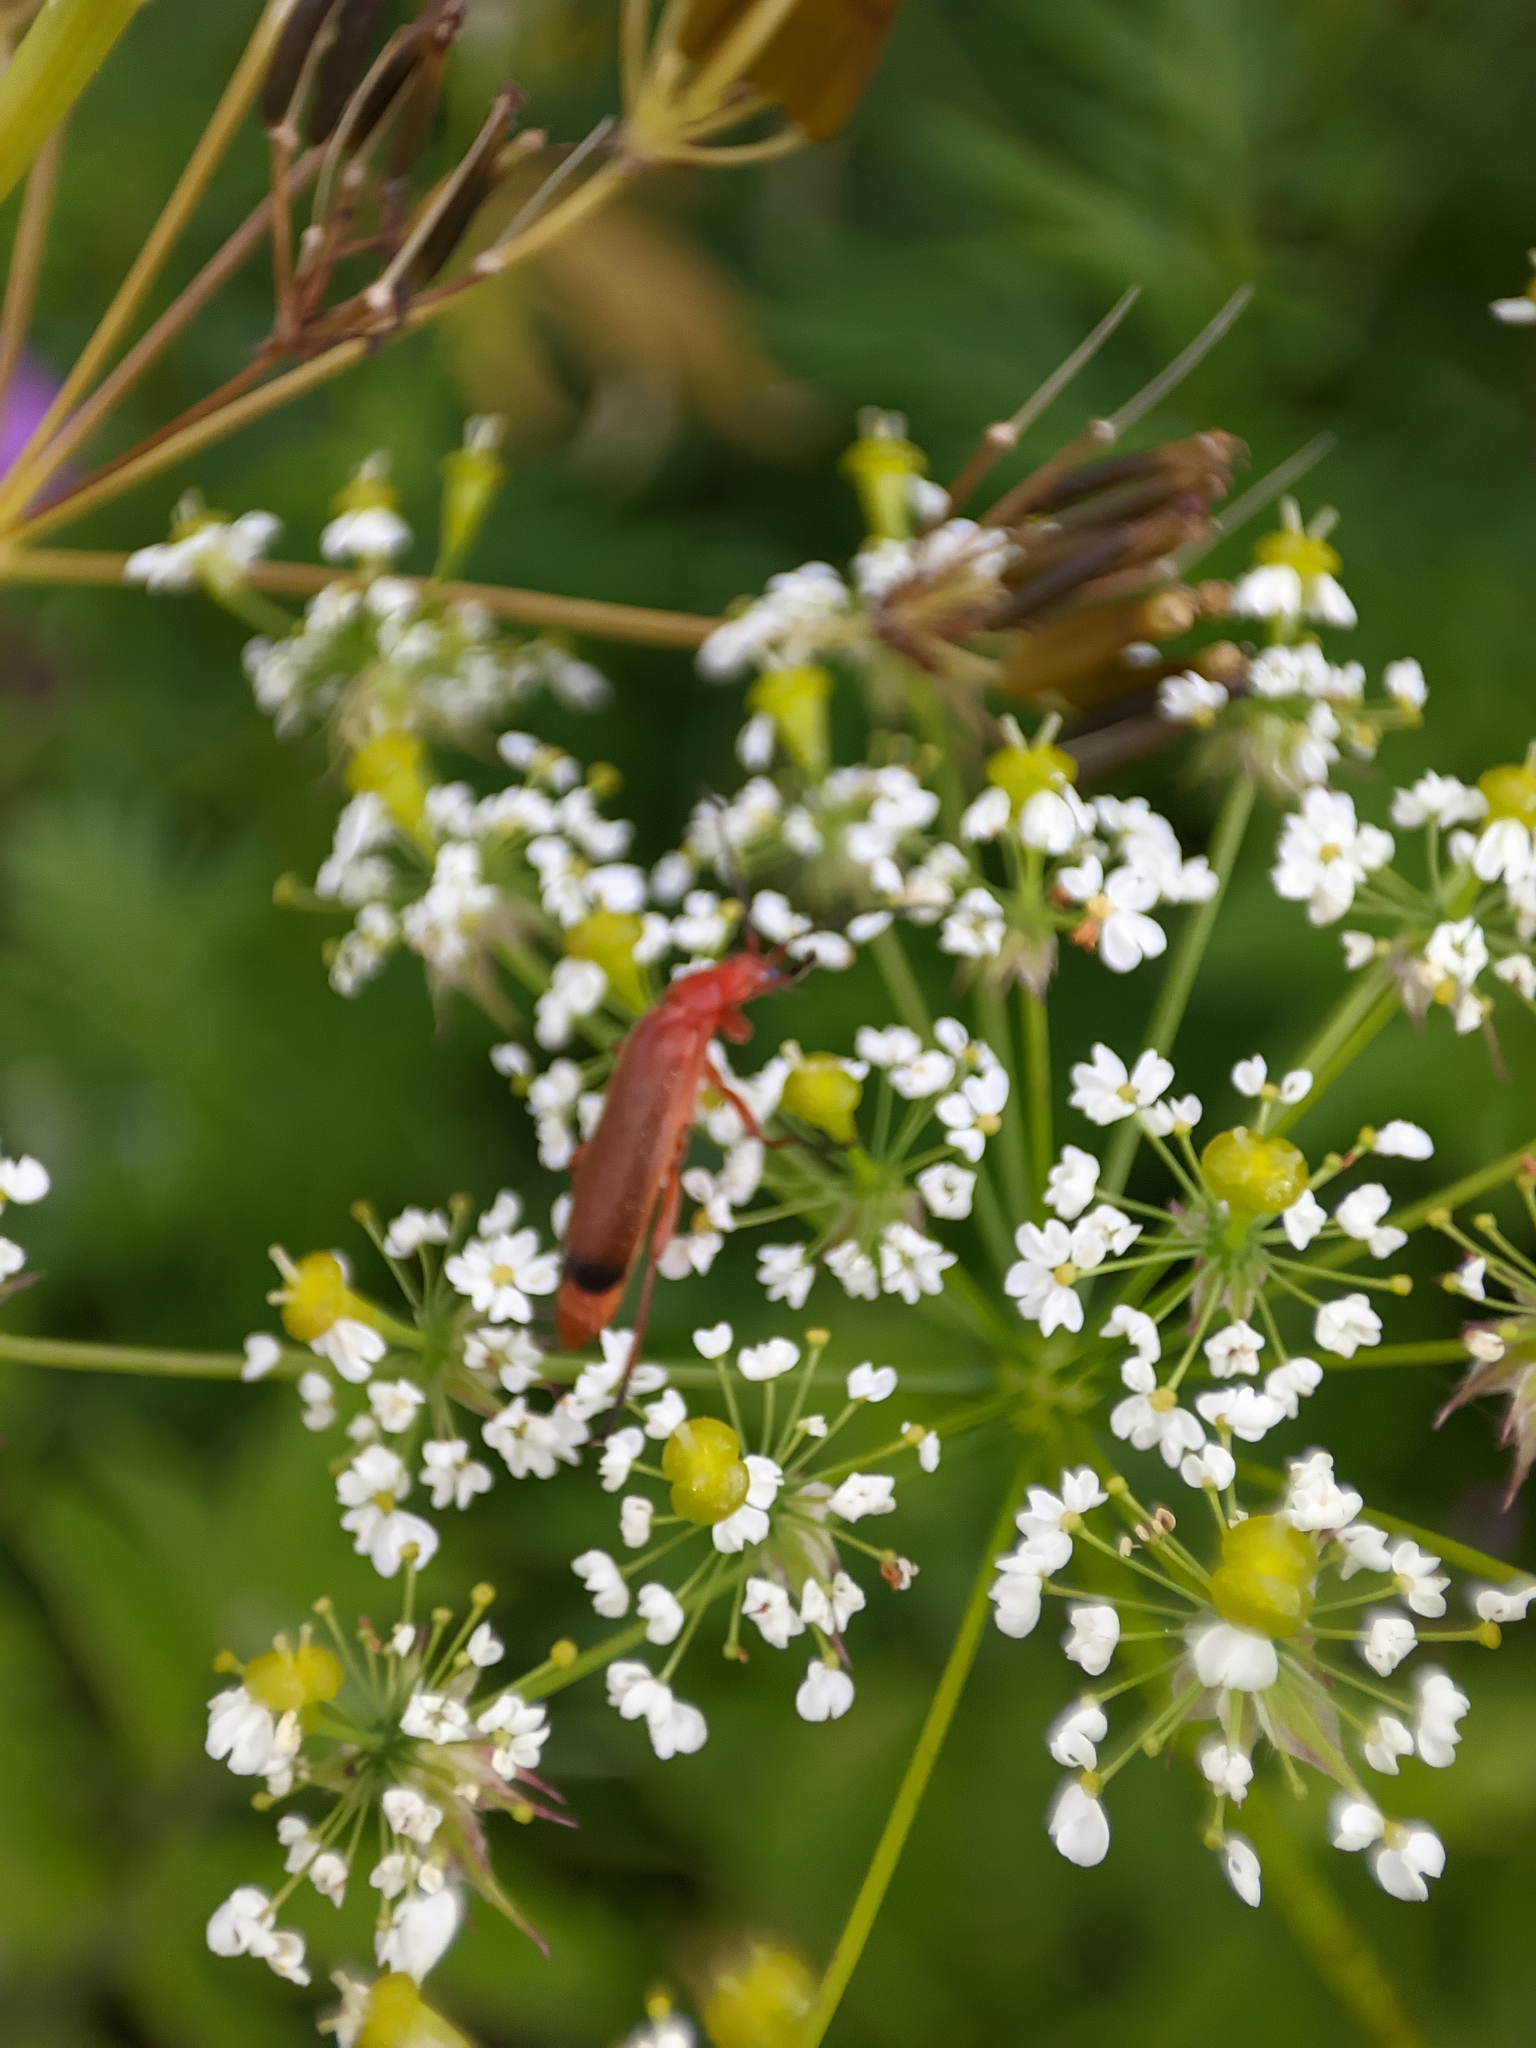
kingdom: Animalia
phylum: Arthropoda
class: Insecta
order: Coleoptera
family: Cantharidae
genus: Rhagonycha
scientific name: Rhagonycha fulva
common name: Common red soldier beetle
